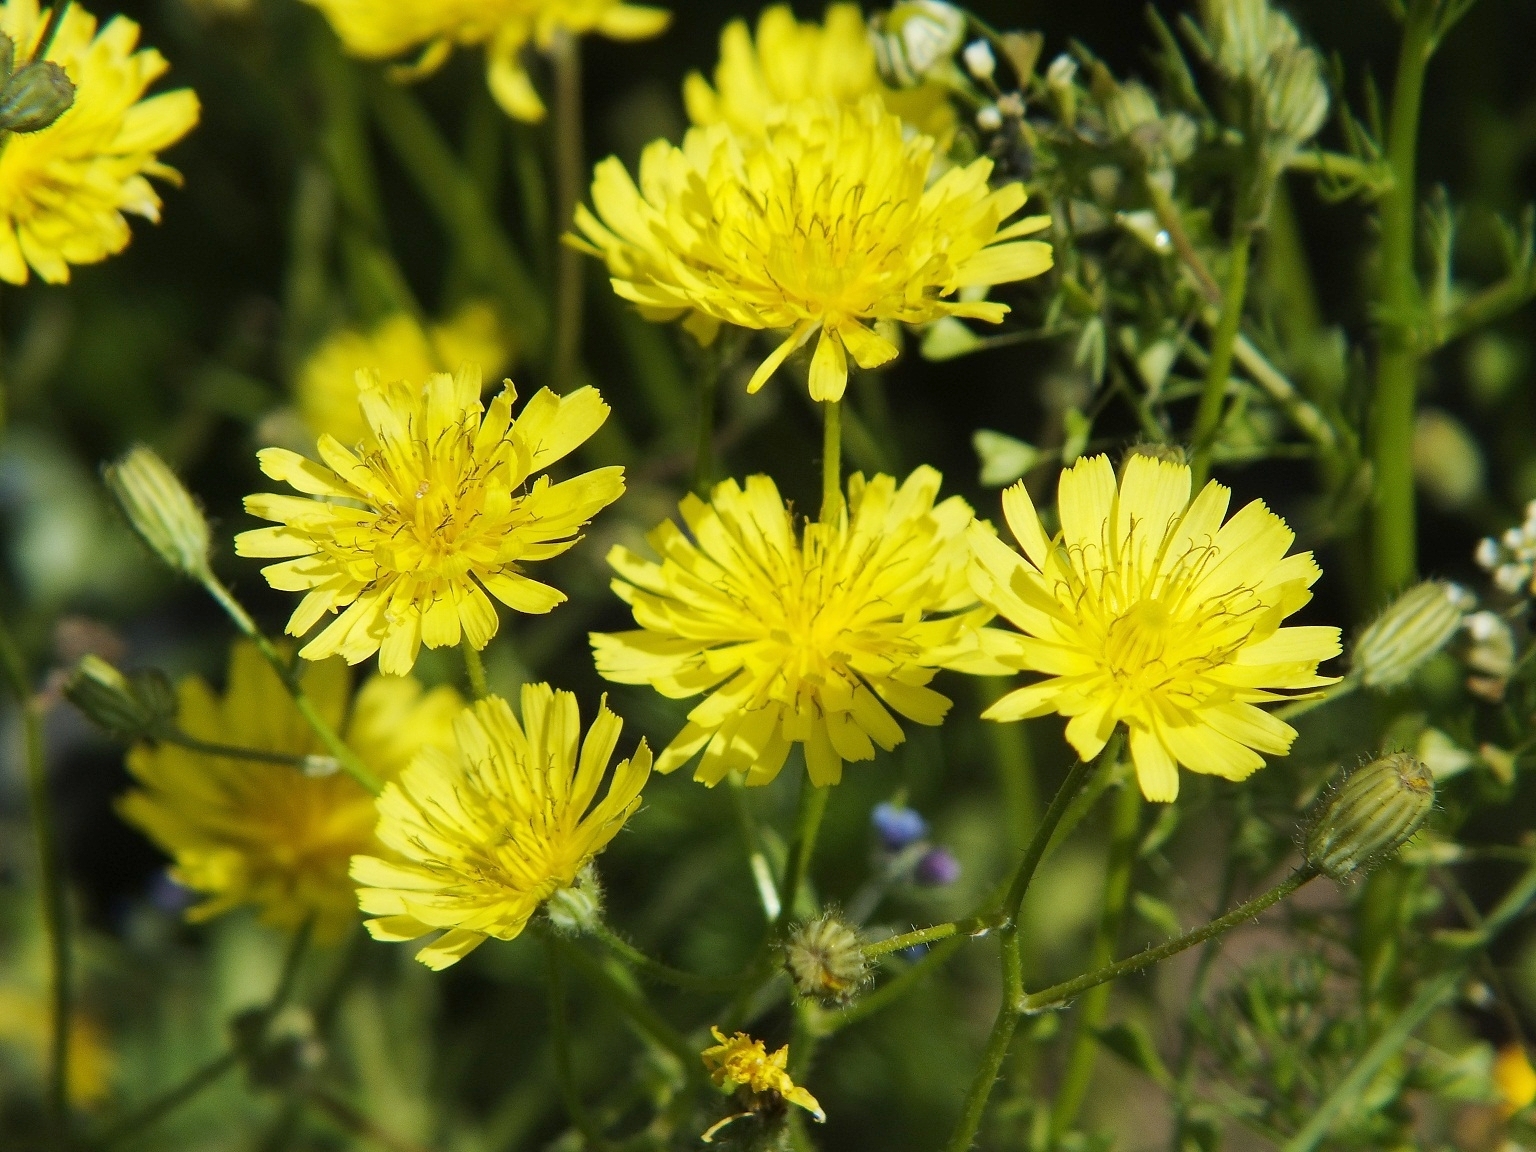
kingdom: Plantae
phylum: Tracheophyta
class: Magnoliopsida
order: Asterales
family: Asteraceae
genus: Crepis
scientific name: Crepis sancta
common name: Hawk's-beard
